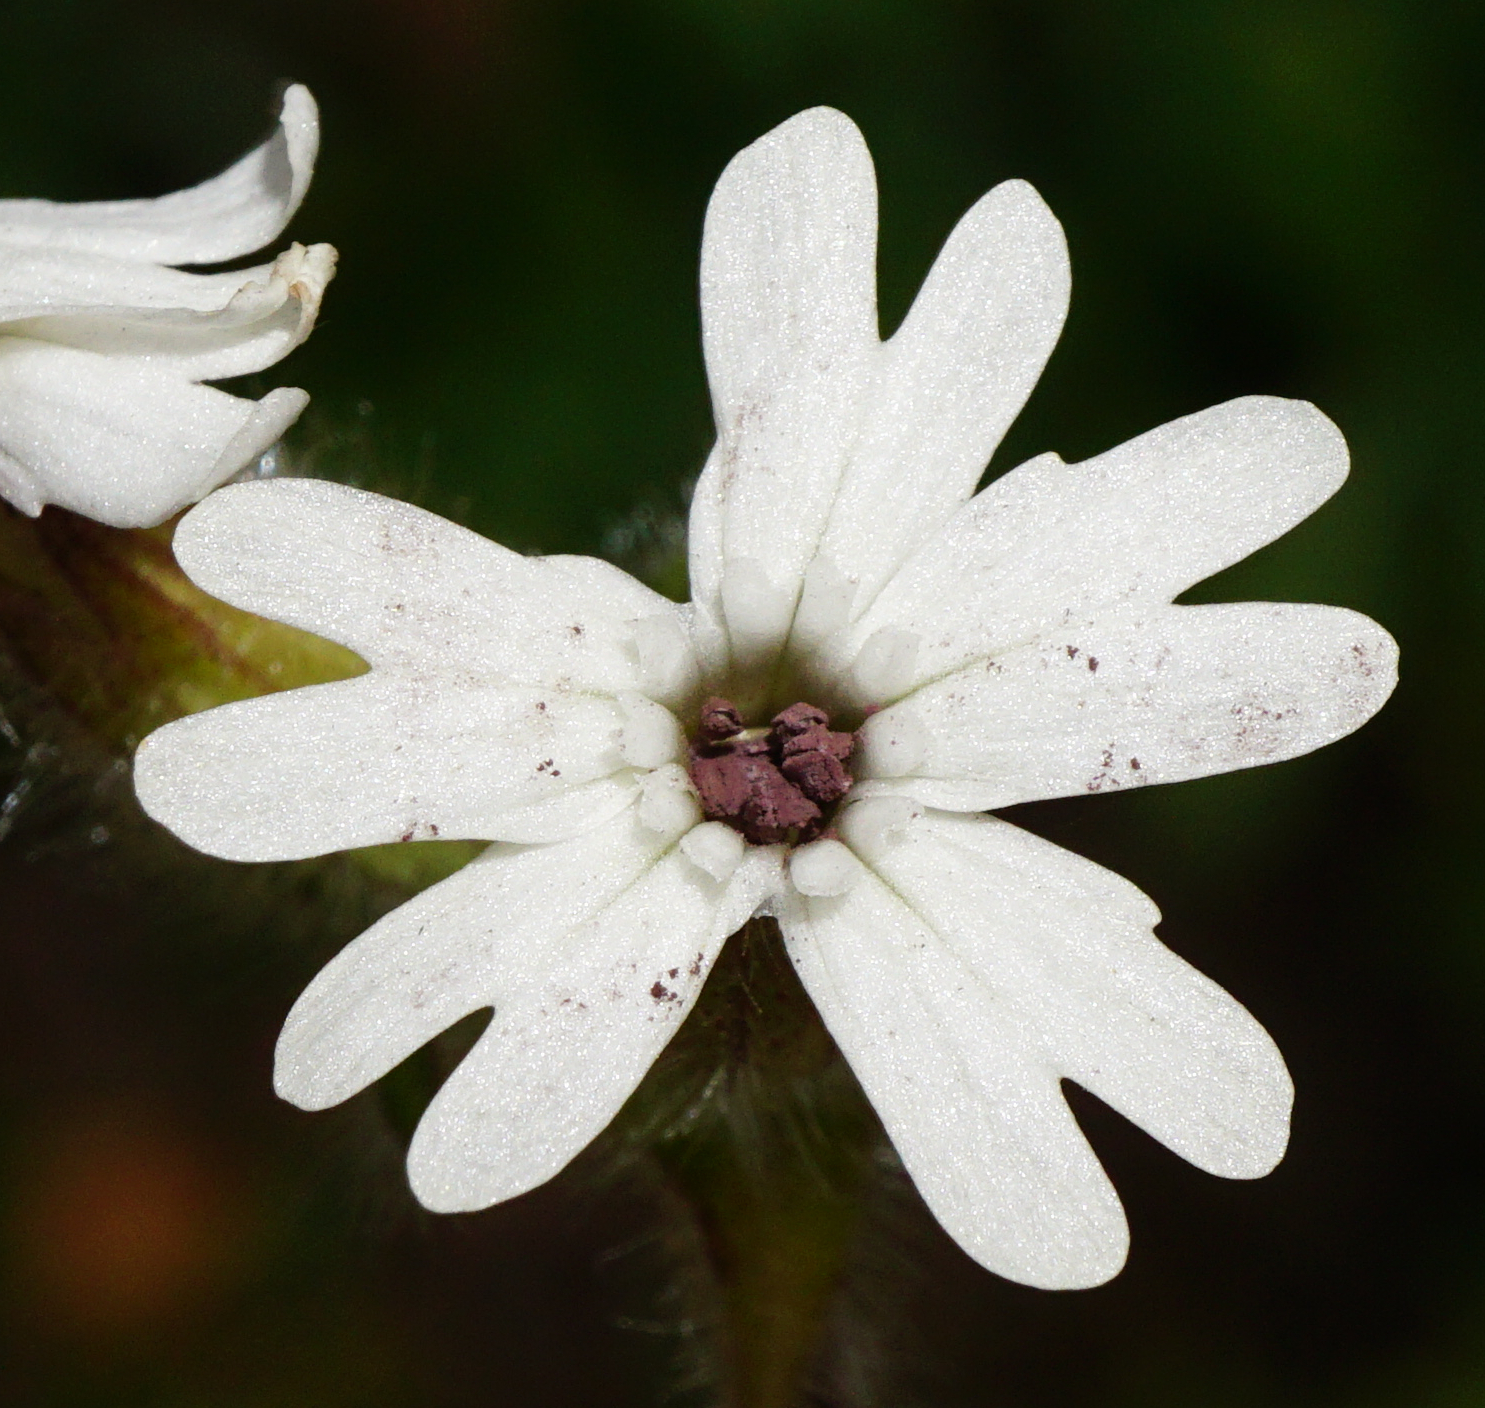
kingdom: Fungi
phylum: Basidiomycota
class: Microbotryomycetes
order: Microbotryales
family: Microbotryaceae
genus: Microbotryum
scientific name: Microbotryum lychnidis-dioicae
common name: Campion anther smut
